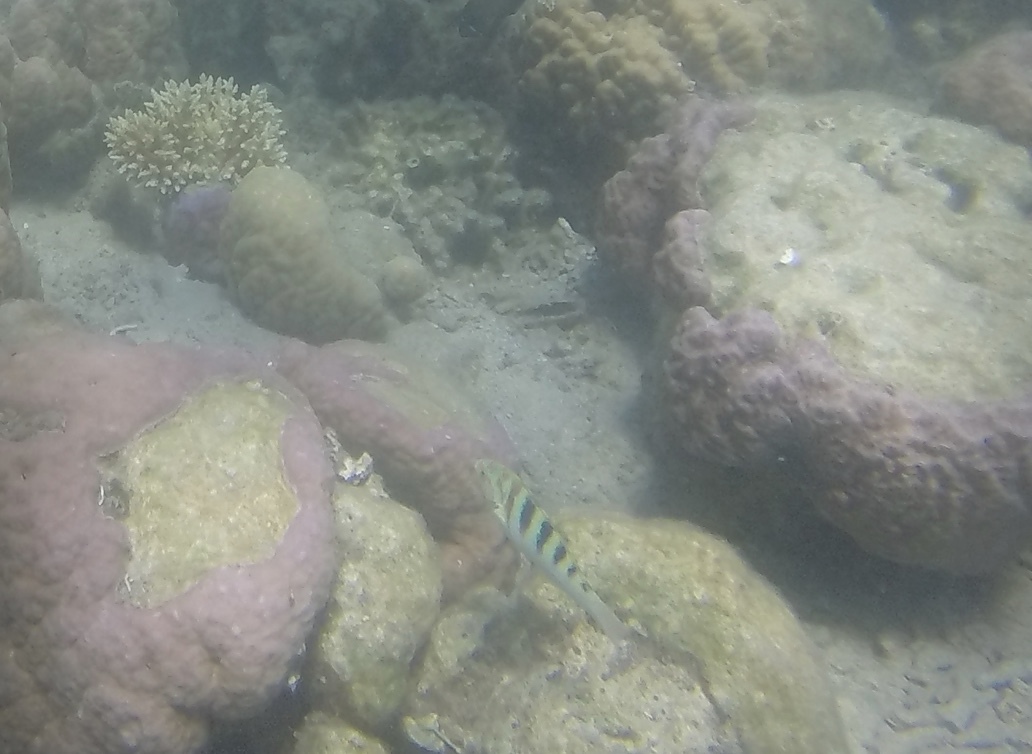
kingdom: Animalia
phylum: Chordata
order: Perciformes
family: Labridae
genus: Thalassoma
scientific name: Thalassoma hardwicke
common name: Sixbar wrasse
